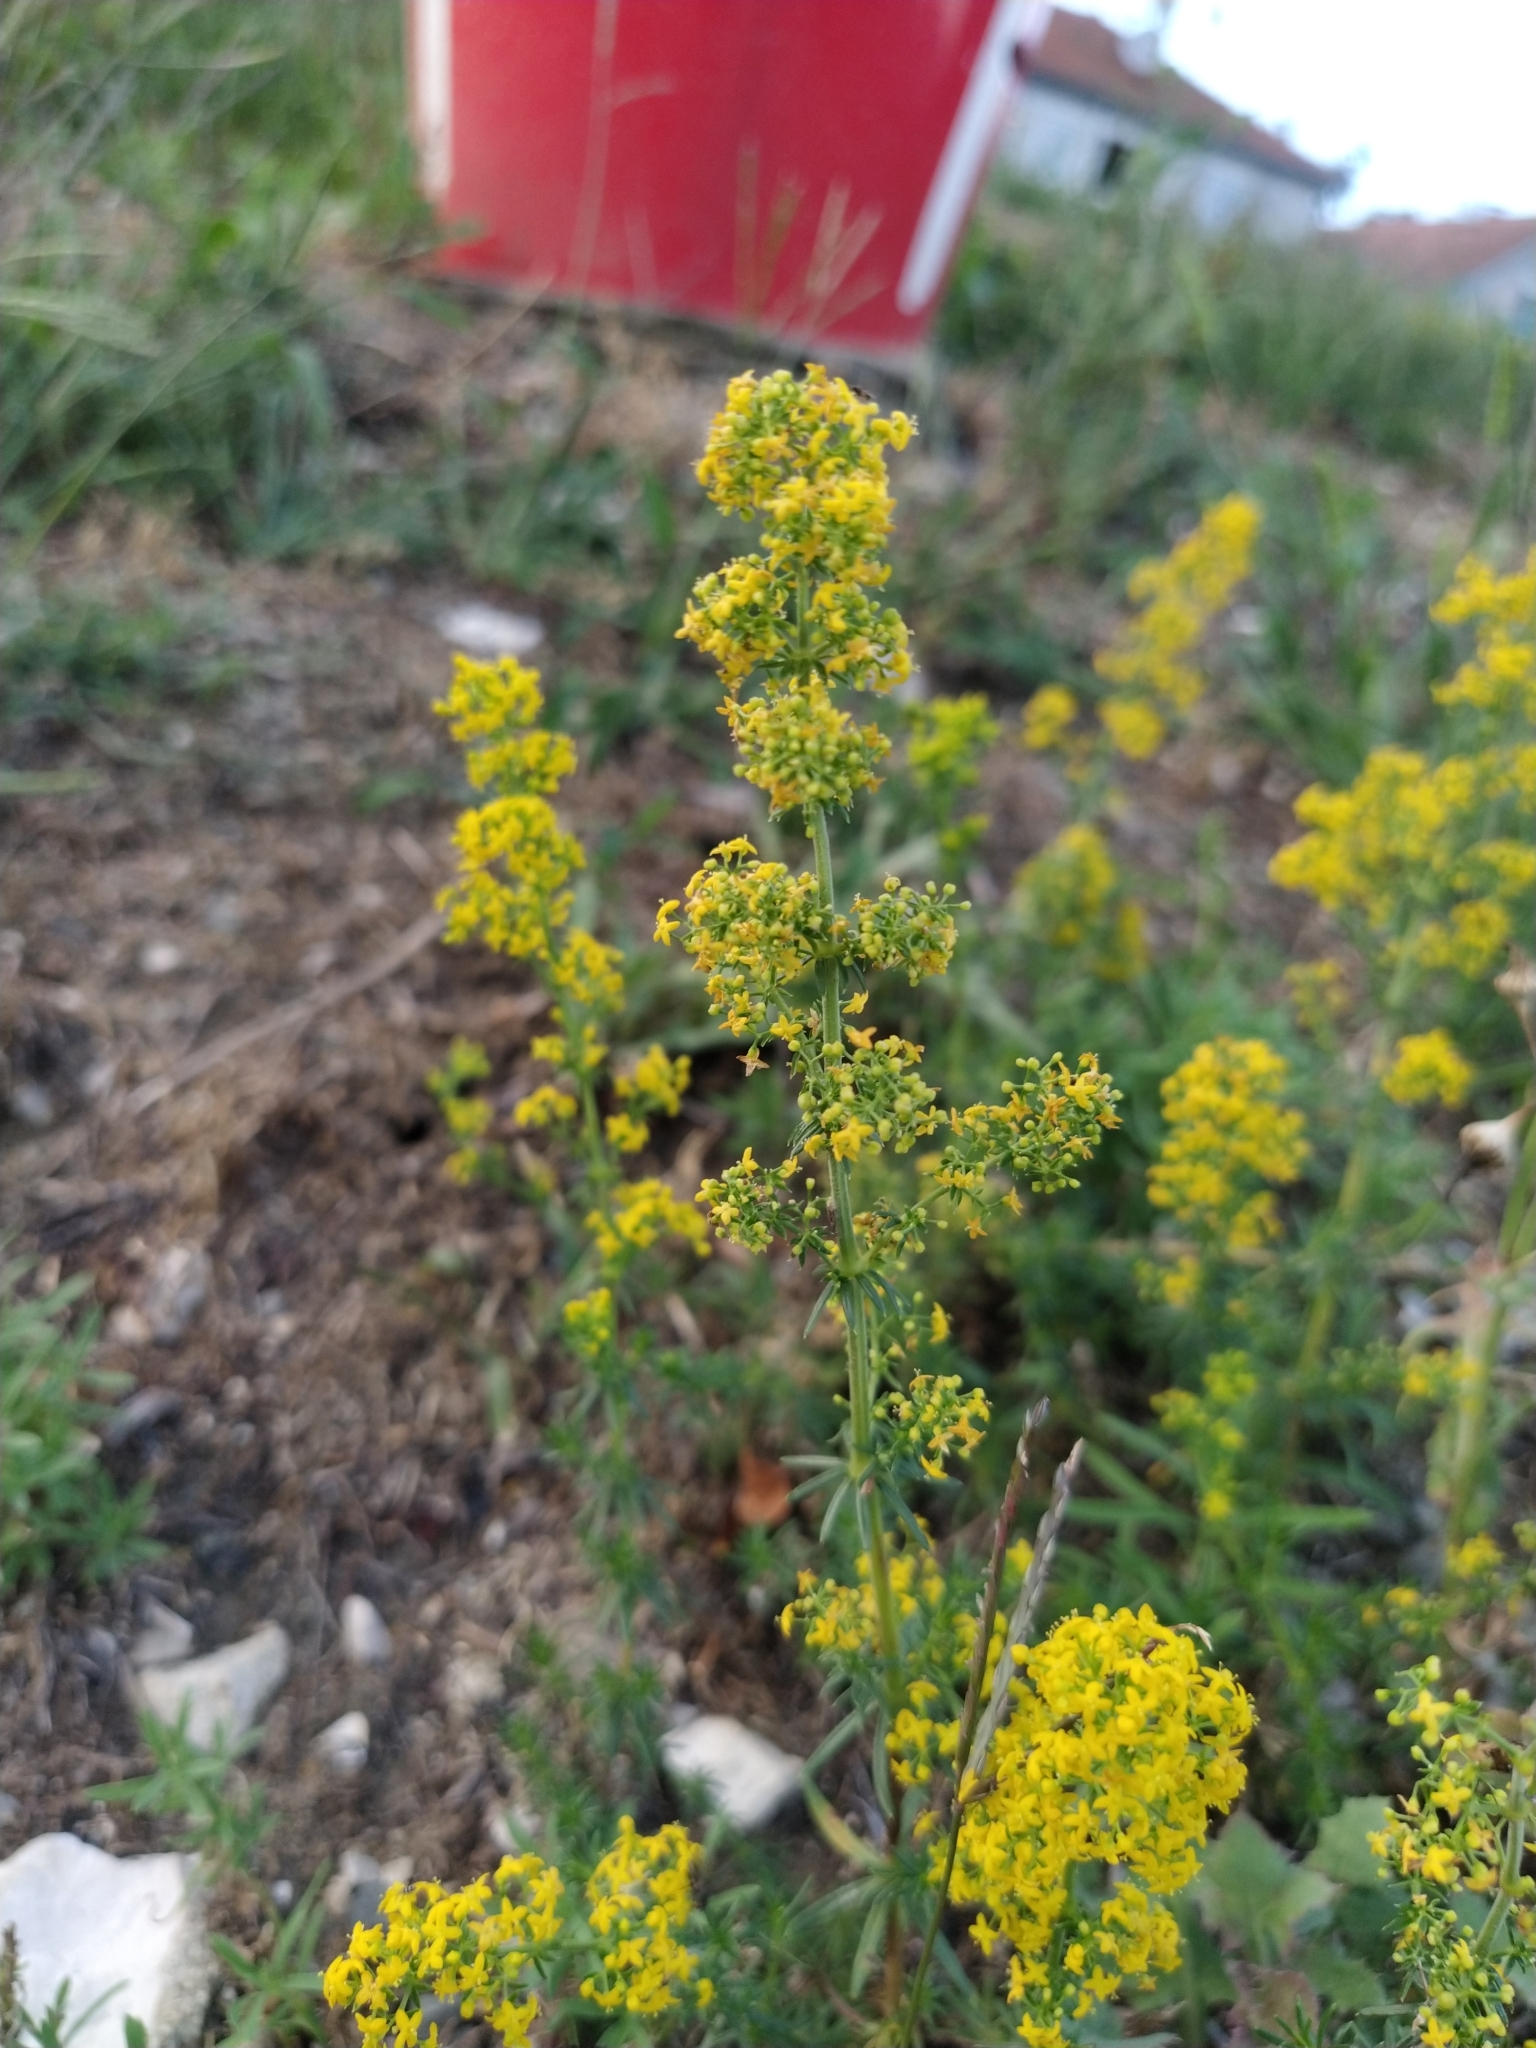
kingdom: Plantae
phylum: Tracheophyta
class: Magnoliopsida
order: Gentianales
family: Rubiaceae
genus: Galium
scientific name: Galium verum
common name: Lady's bedstraw
